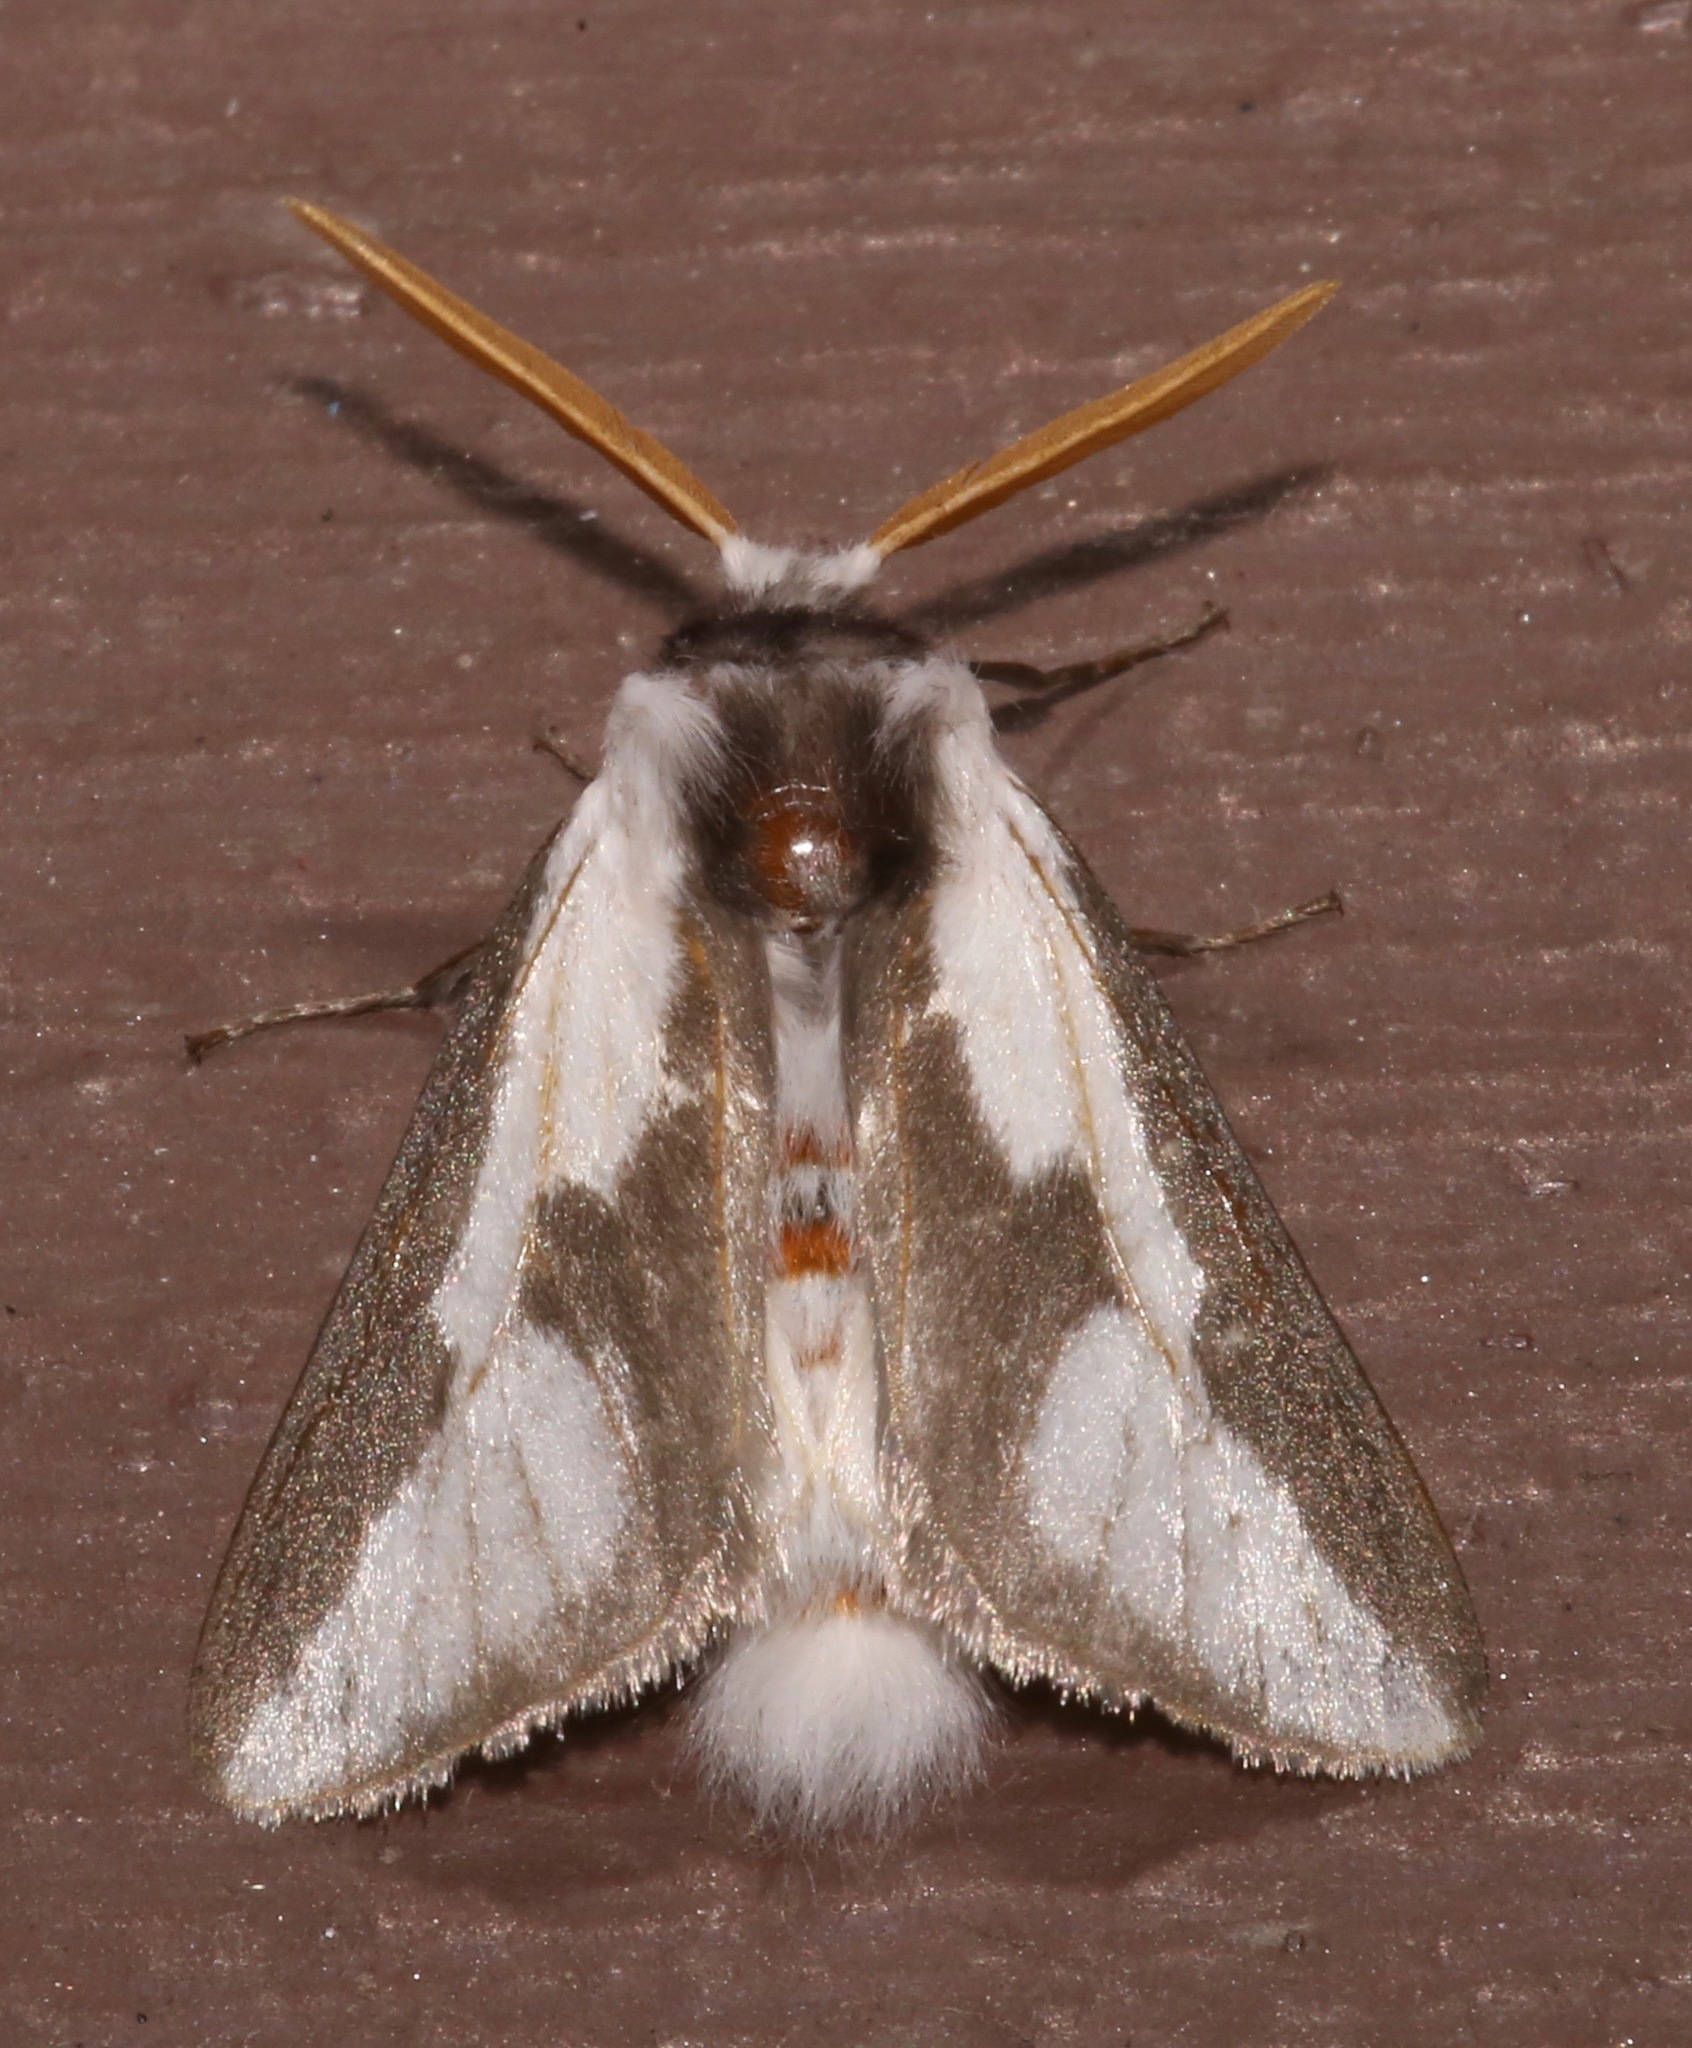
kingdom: Animalia
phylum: Arthropoda
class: Insecta
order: Lepidoptera
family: Megalopygidae
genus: Norape
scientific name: Norape tener
